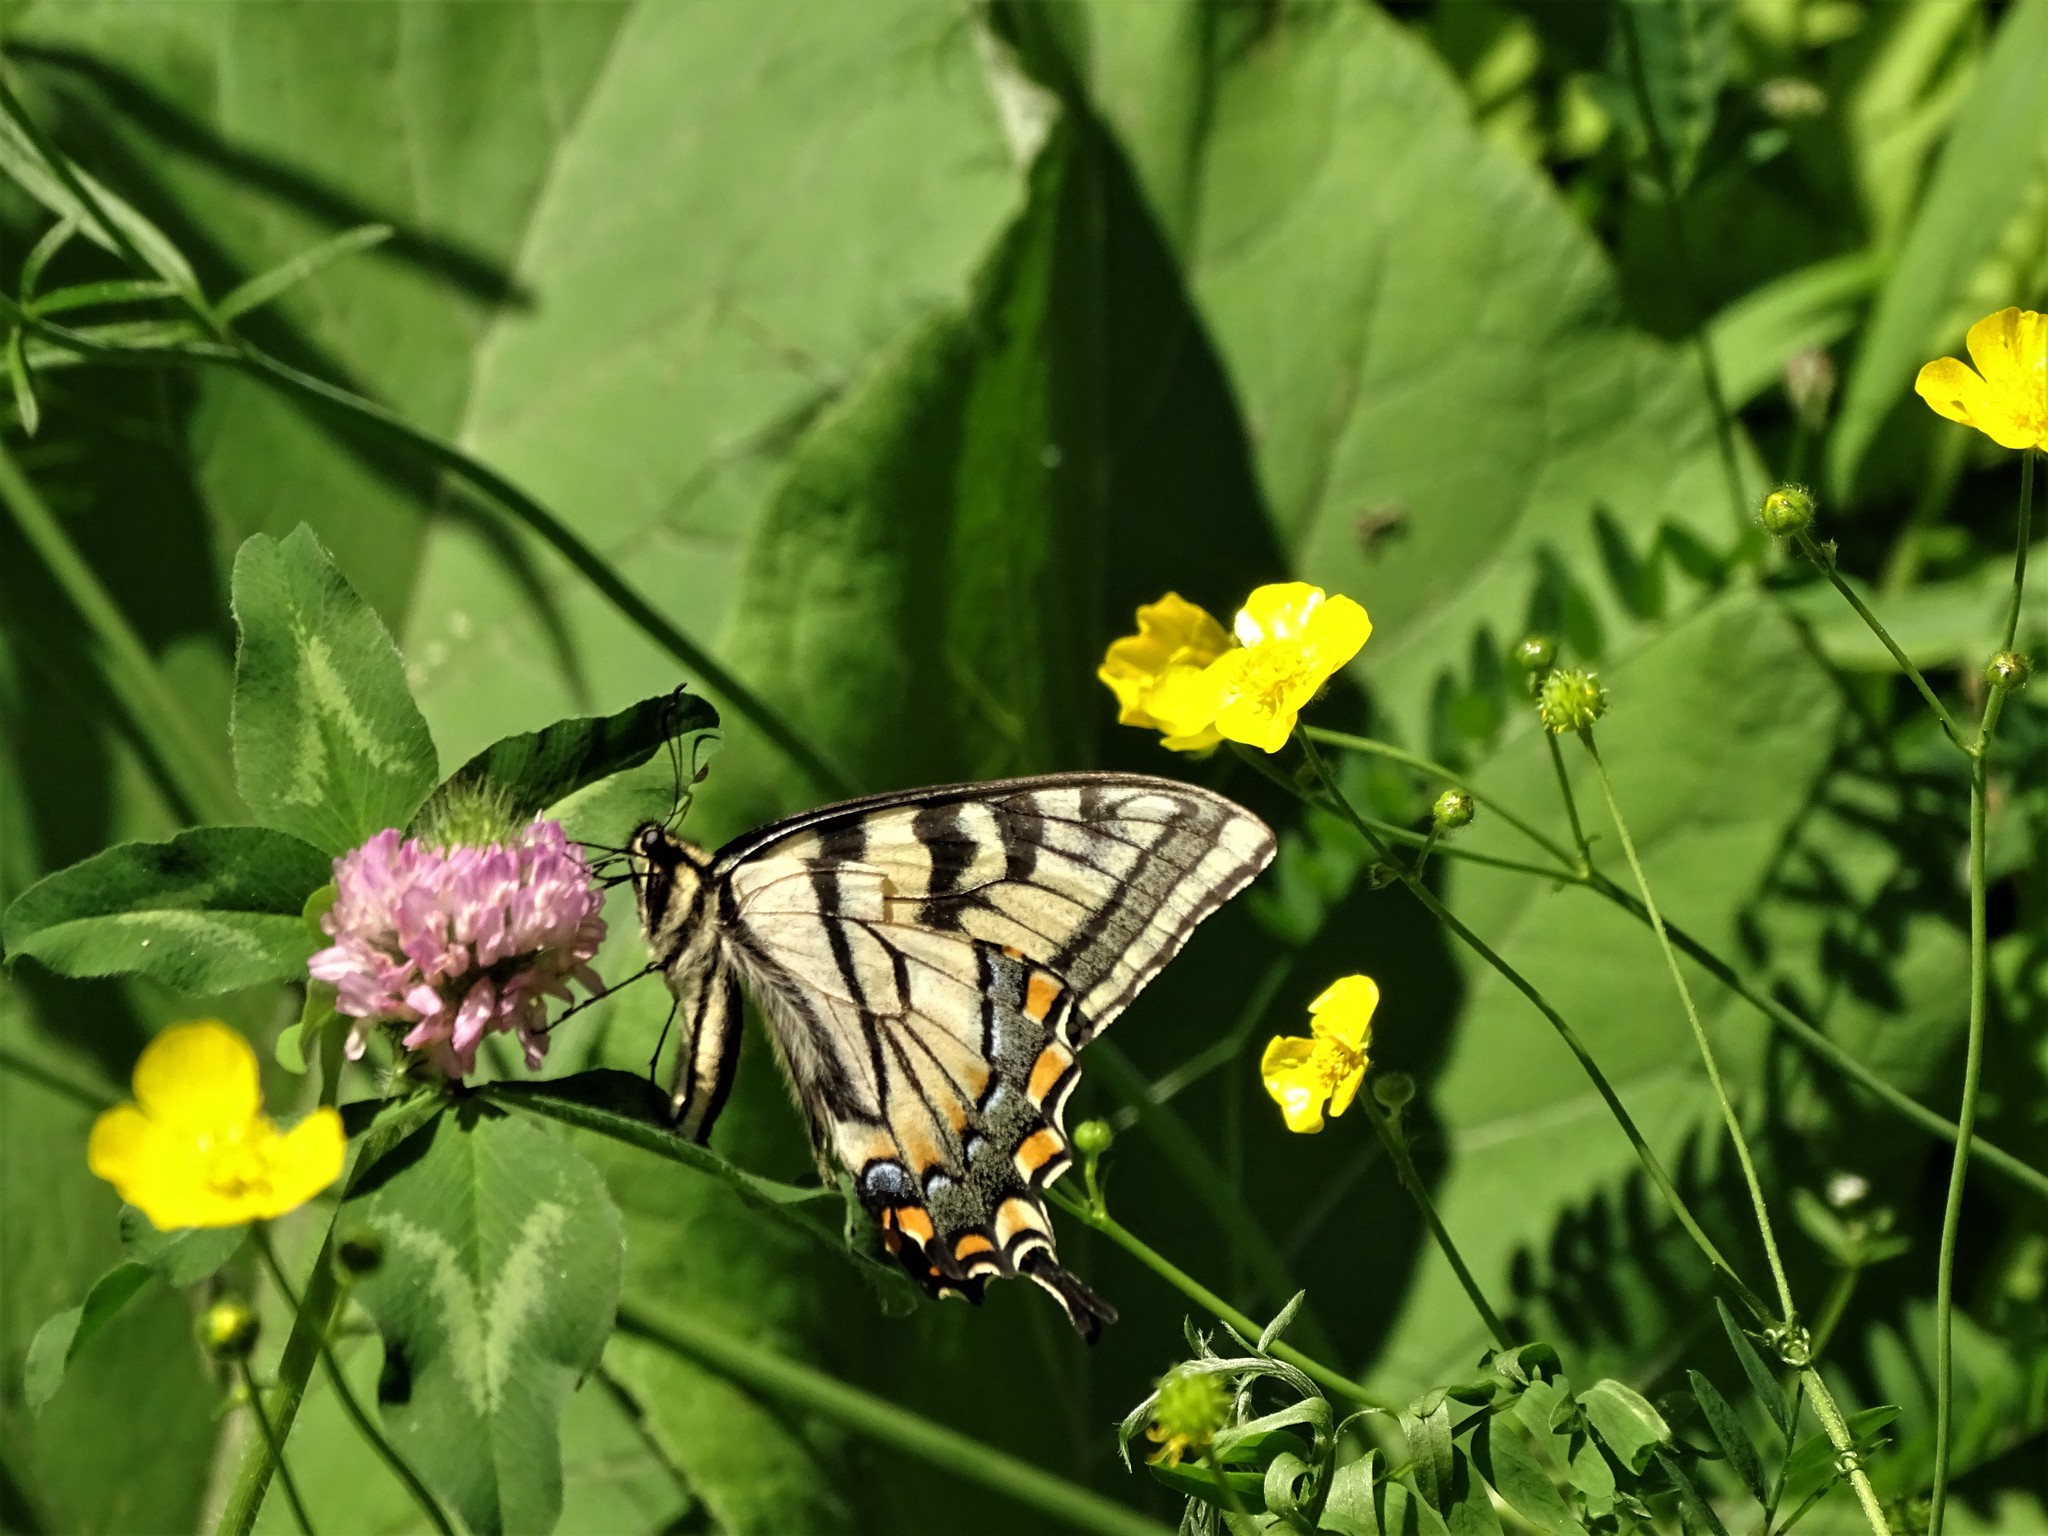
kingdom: Animalia
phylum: Arthropoda
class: Insecta
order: Lepidoptera
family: Papilionidae
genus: Papilio
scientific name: Papilio canadensis
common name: Canadian tiger swallowtail
